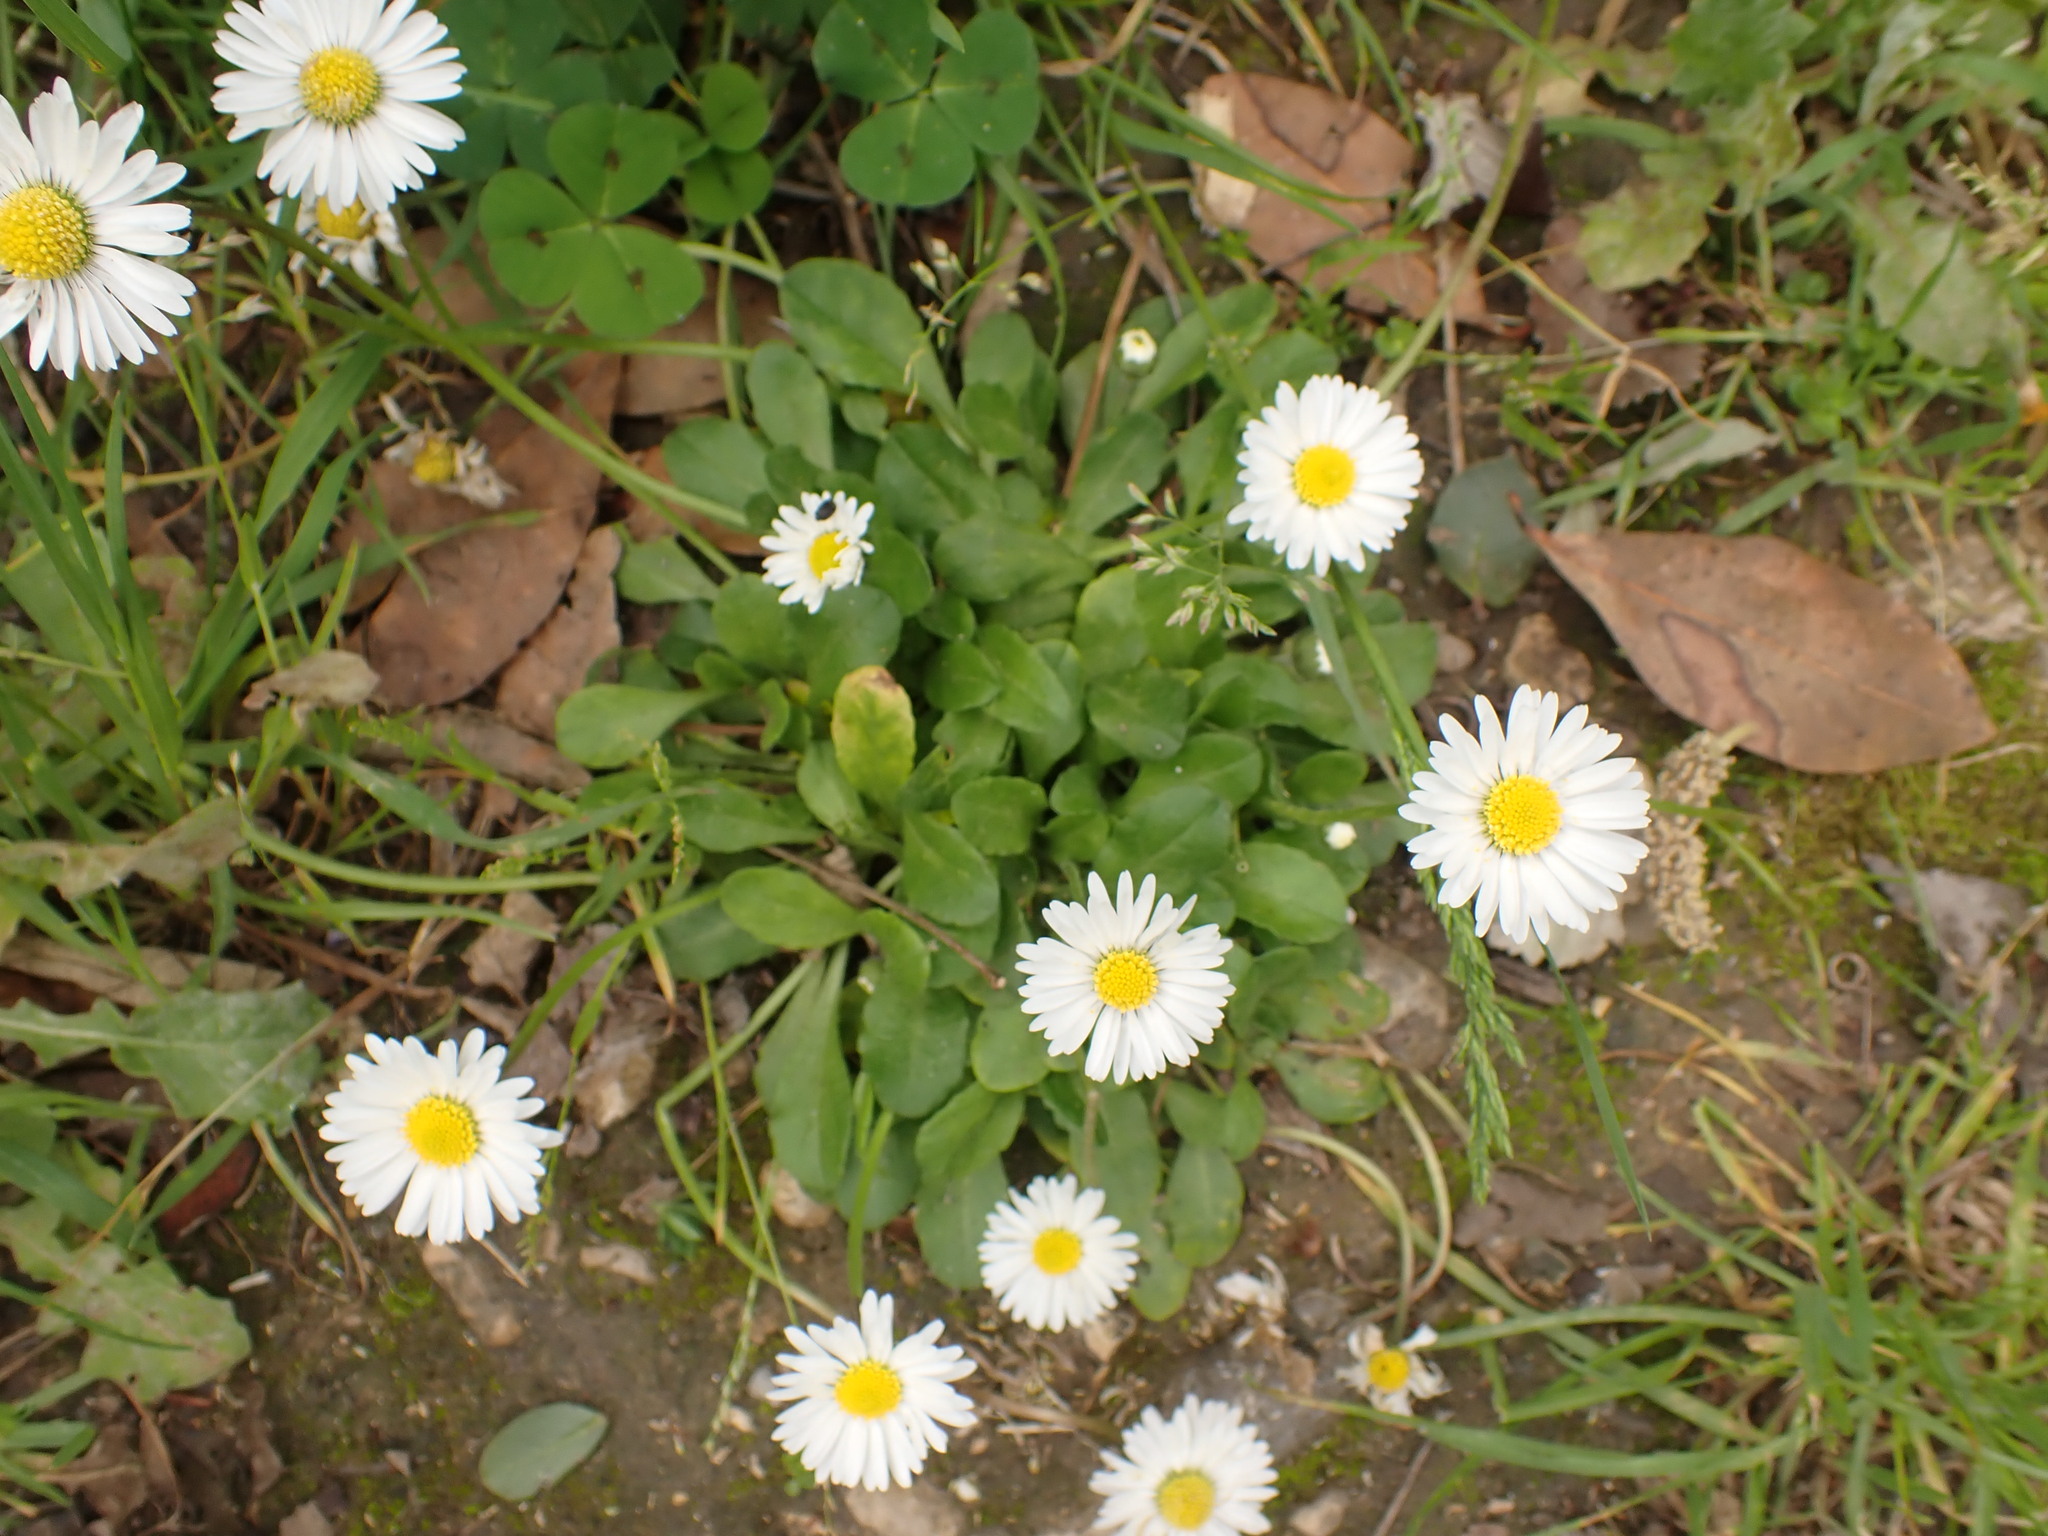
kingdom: Plantae
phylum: Tracheophyta
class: Magnoliopsida
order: Asterales
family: Asteraceae
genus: Bellis
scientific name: Bellis perennis
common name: Lawndaisy
